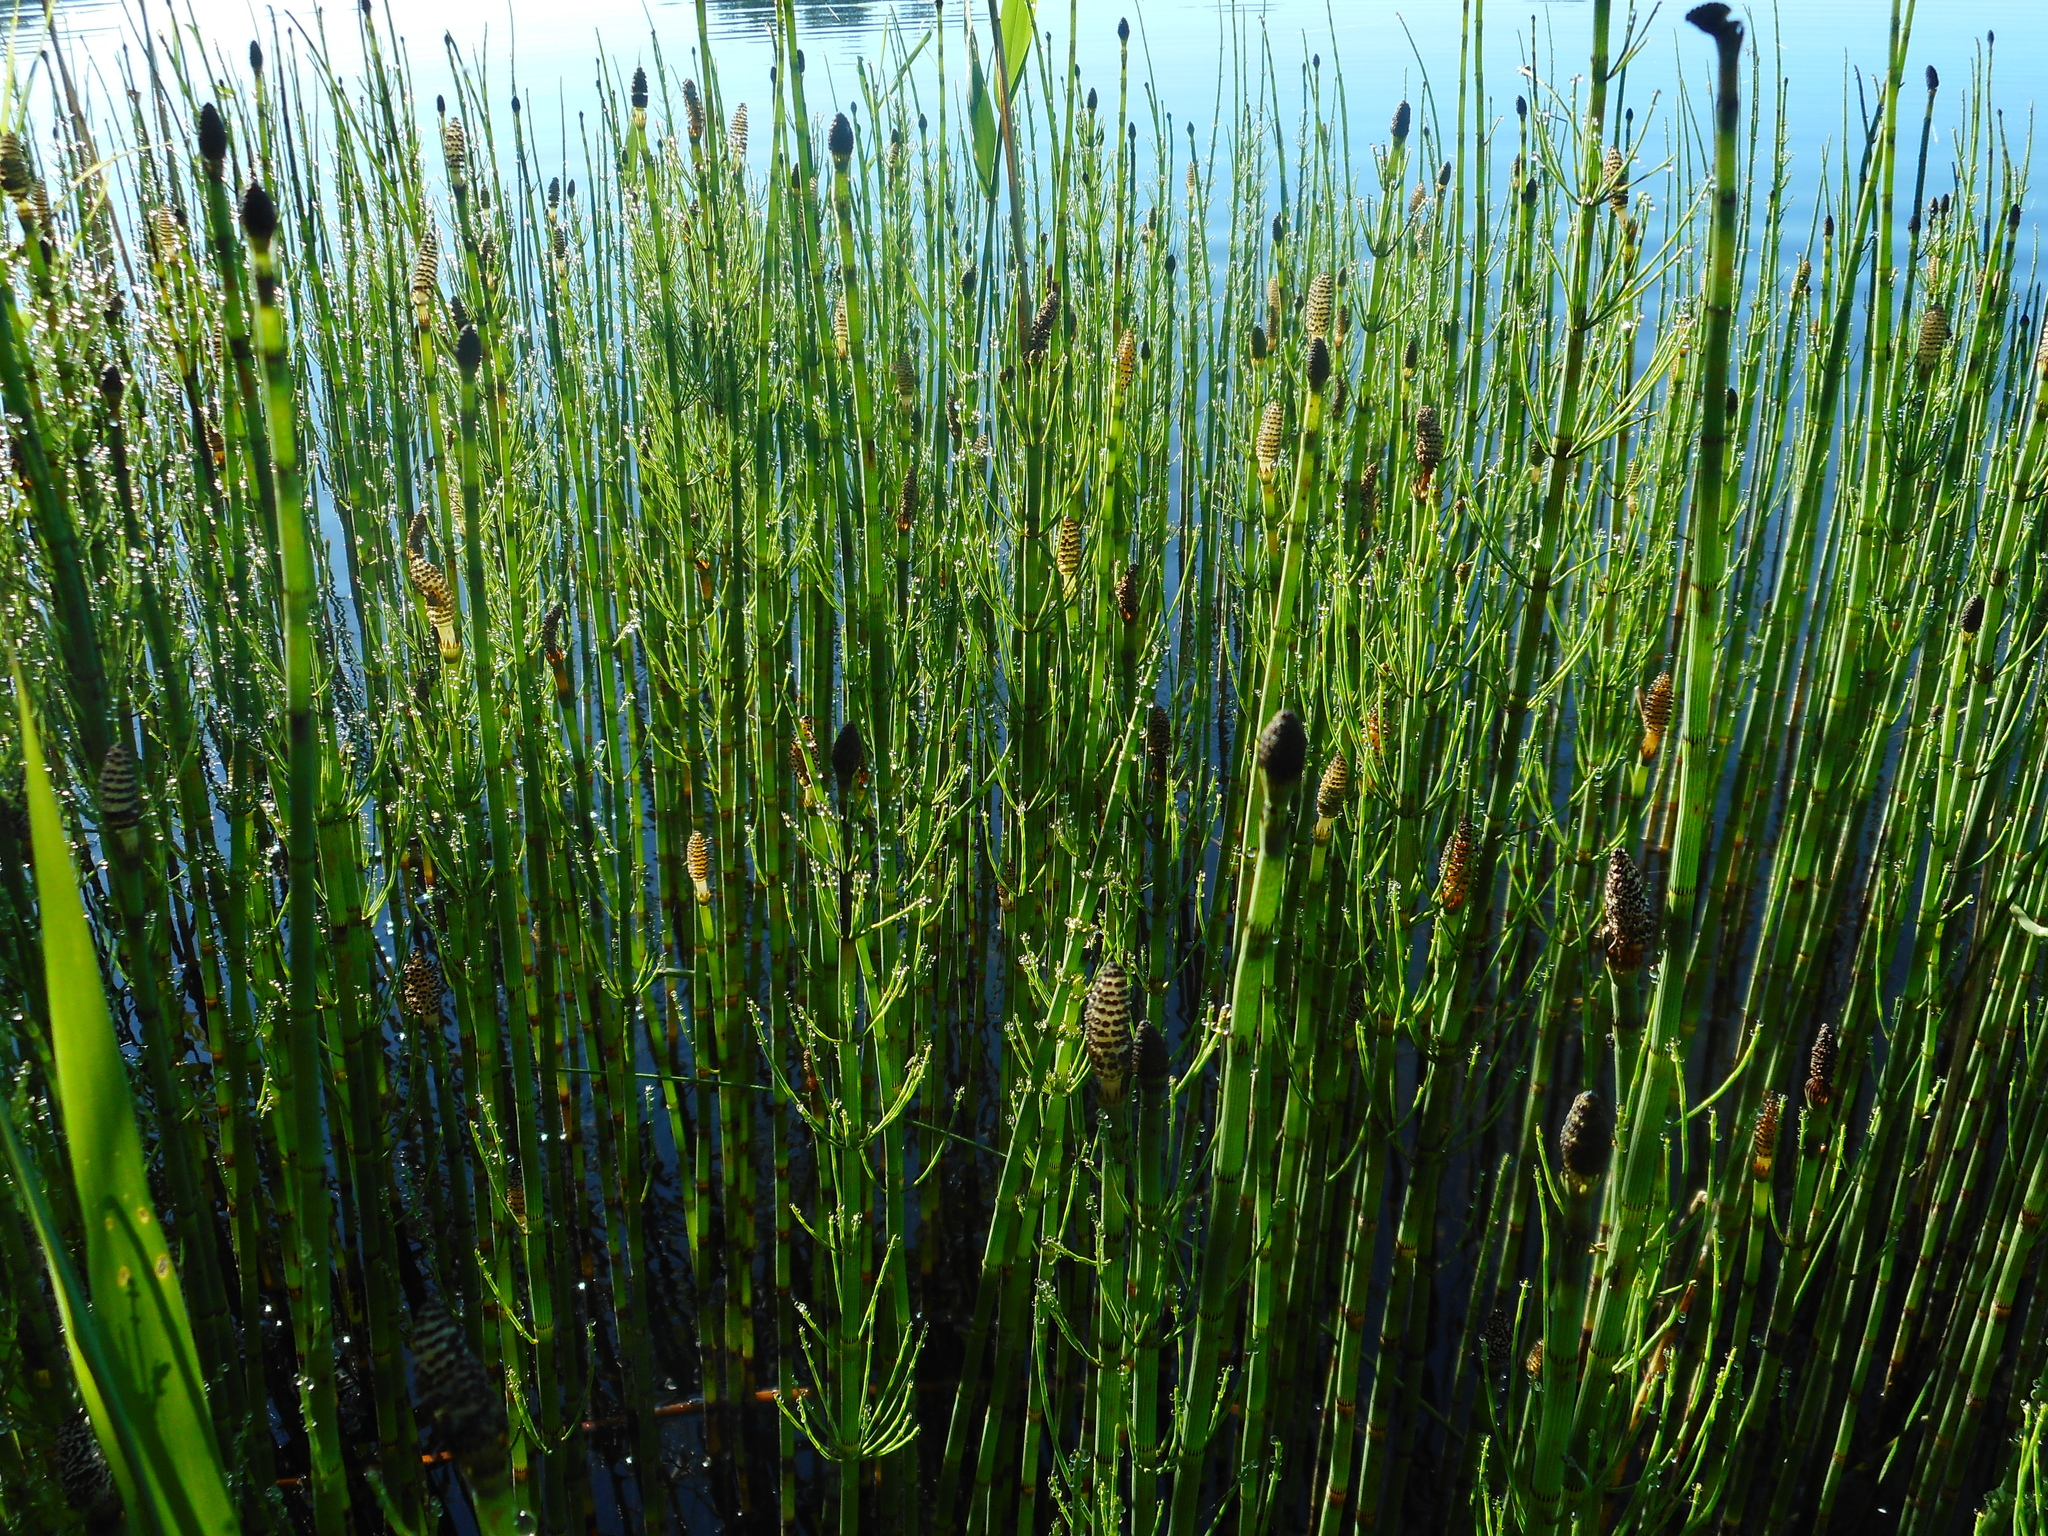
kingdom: Plantae
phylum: Tracheophyta
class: Polypodiopsida
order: Equisetales
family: Equisetaceae
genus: Equisetum
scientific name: Equisetum fluviatile
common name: Water horsetail
